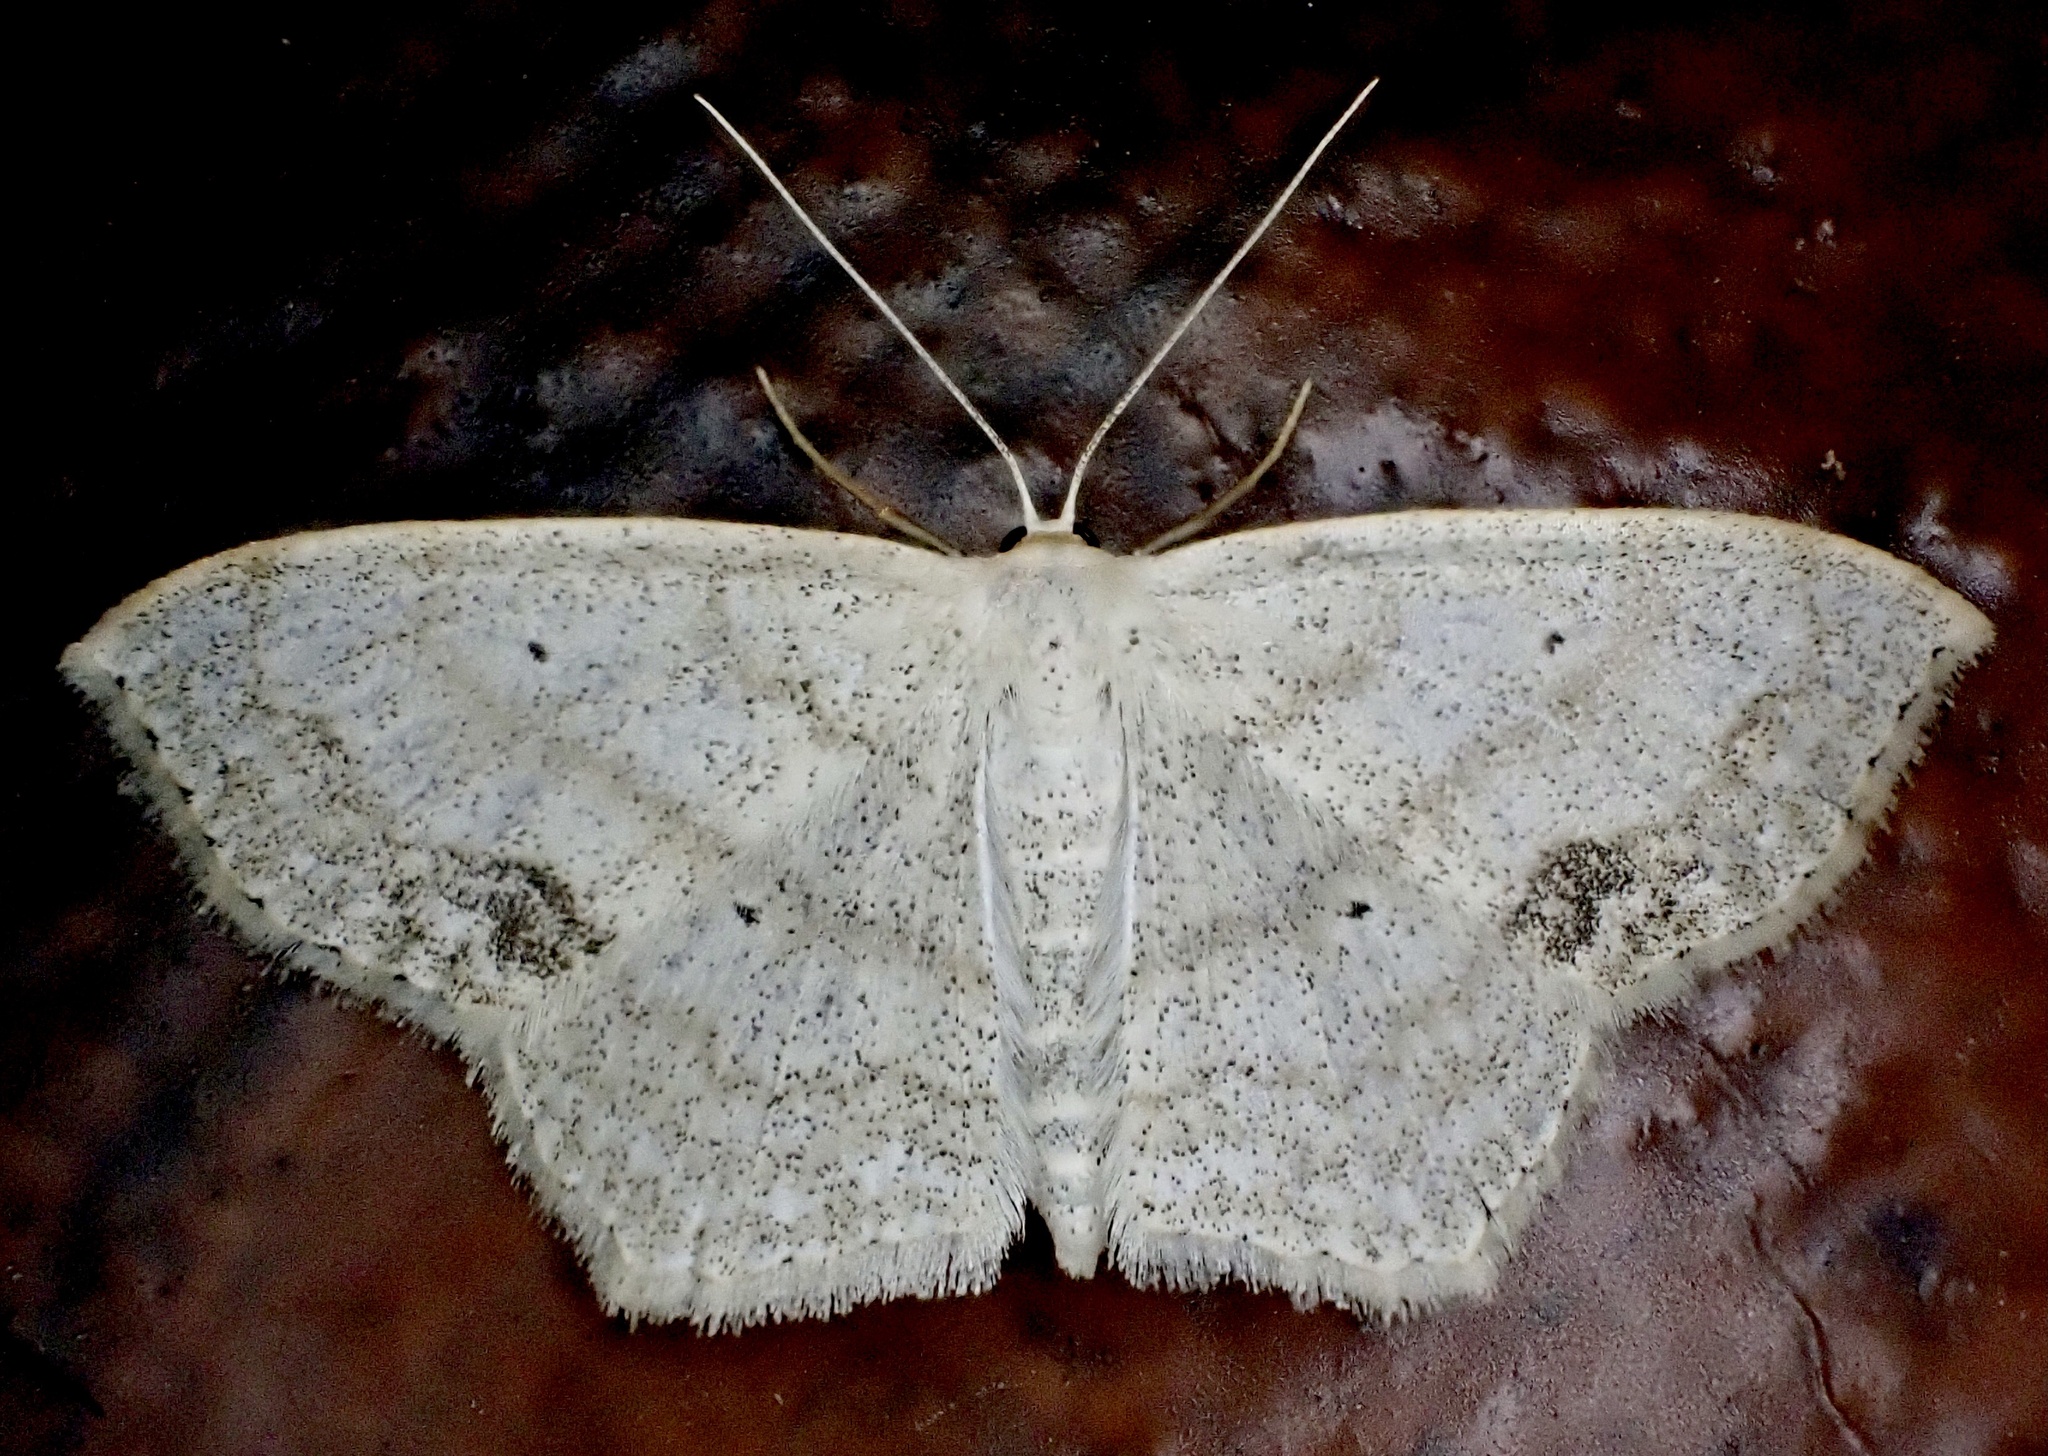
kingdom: Animalia
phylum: Arthropoda
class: Insecta
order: Lepidoptera
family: Geometridae
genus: Scopula
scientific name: Scopula limboundata
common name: Large lace border
